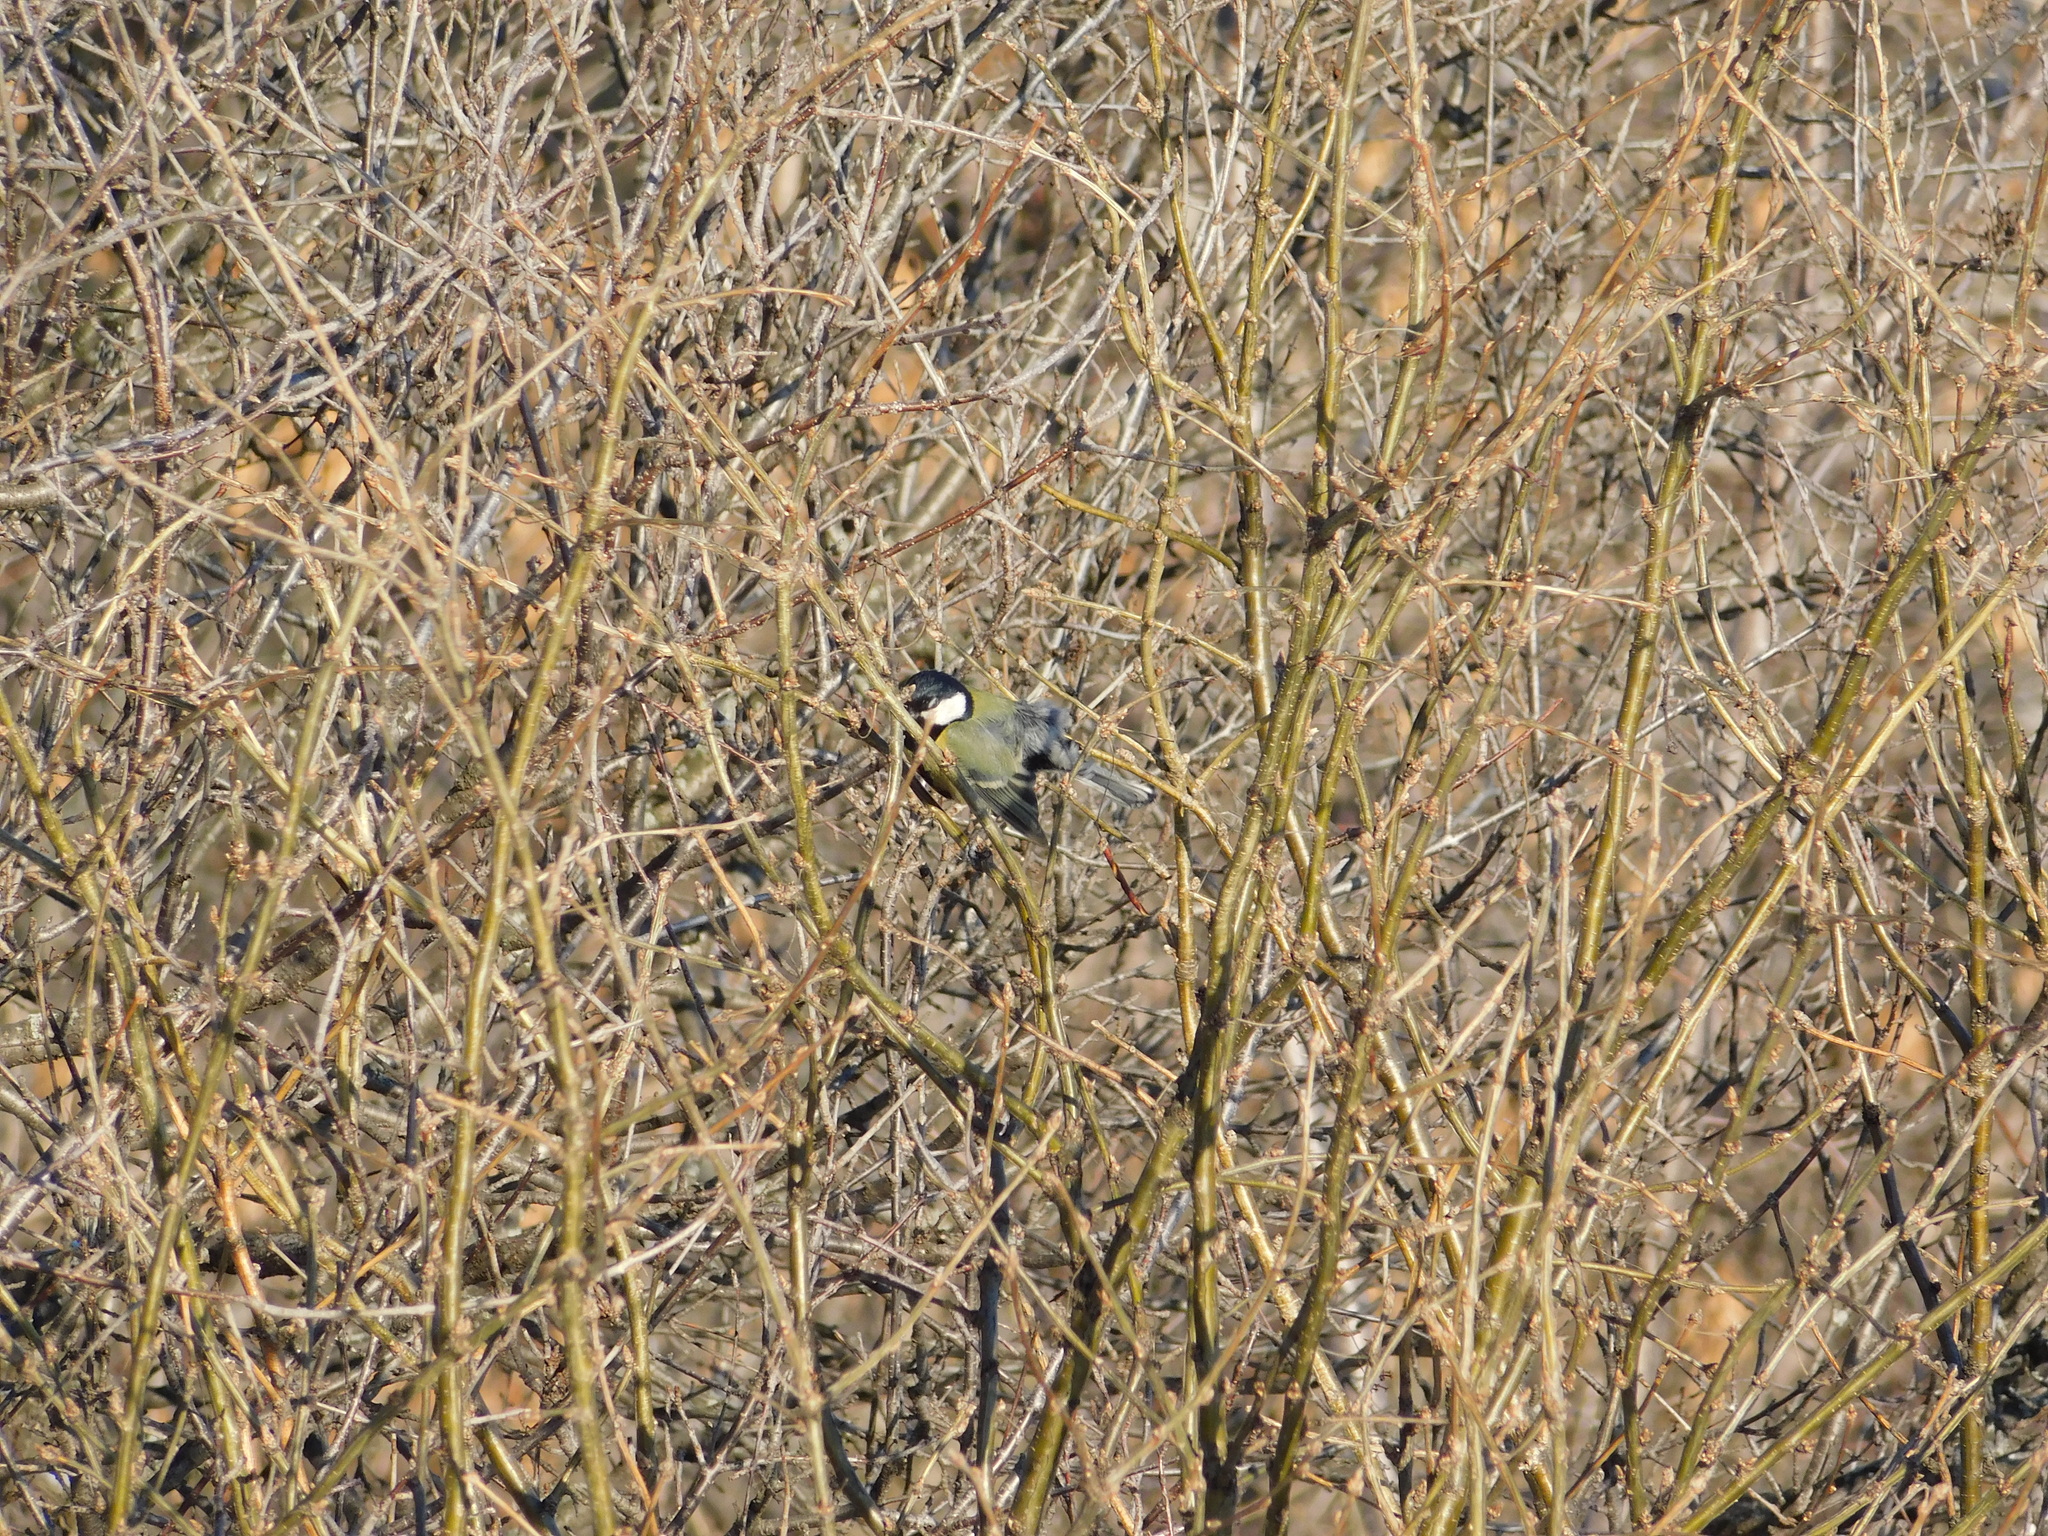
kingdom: Animalia
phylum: Chordata
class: Aves
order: Passeriformes
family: Paridae
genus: Parus
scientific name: Parus major
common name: Great tit
